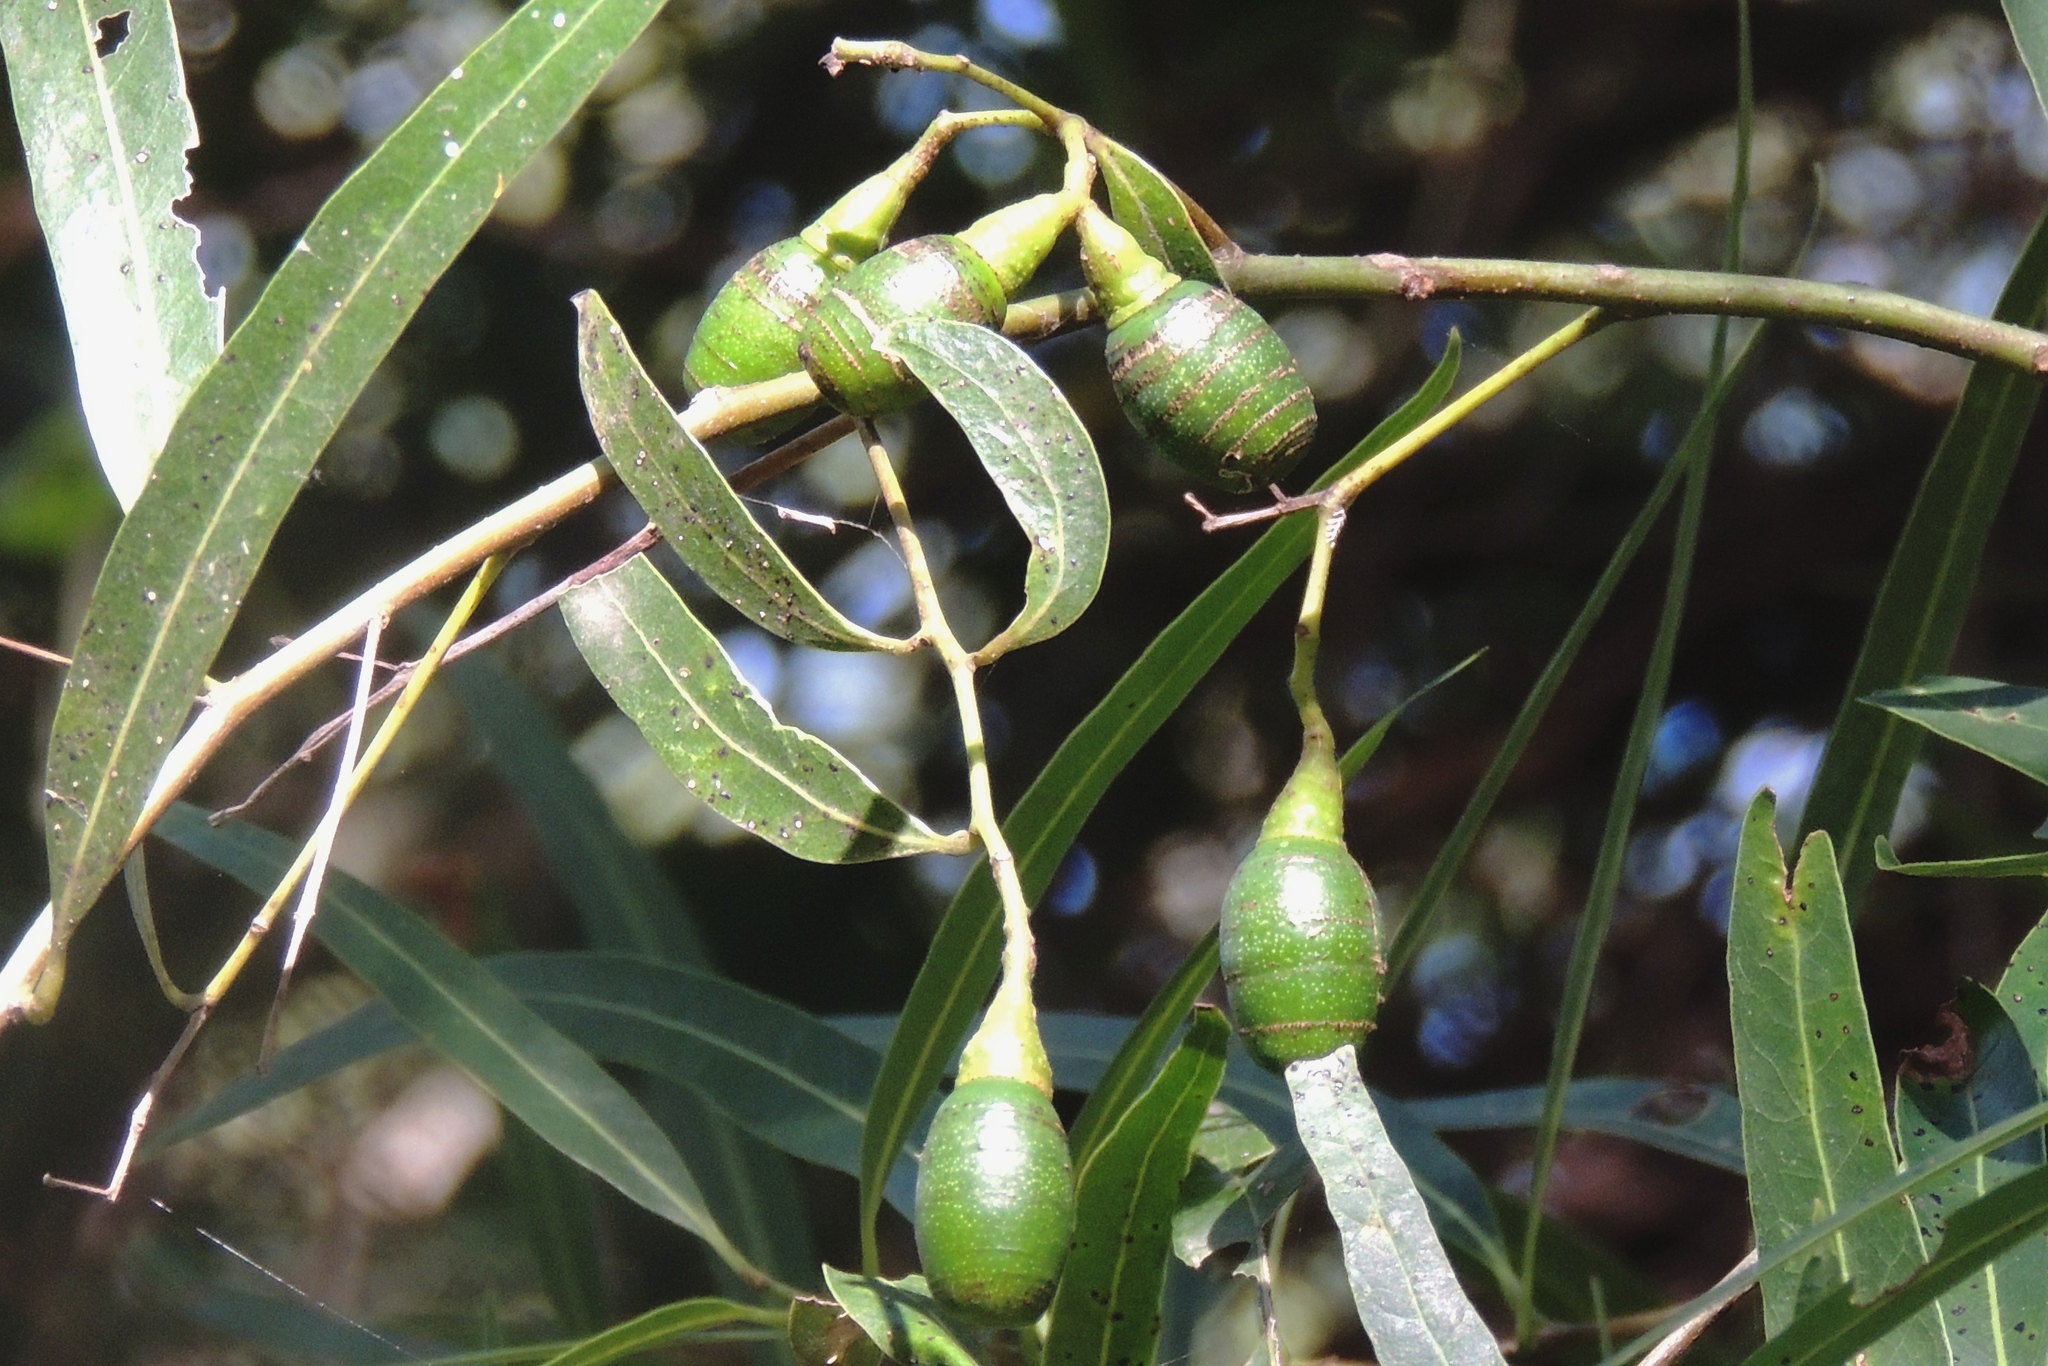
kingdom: Plantae
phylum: Tracheophyta
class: Magnoliopsida
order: Laurales
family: Lauraceae
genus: Nectandra
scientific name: Nectandra angustifolia
